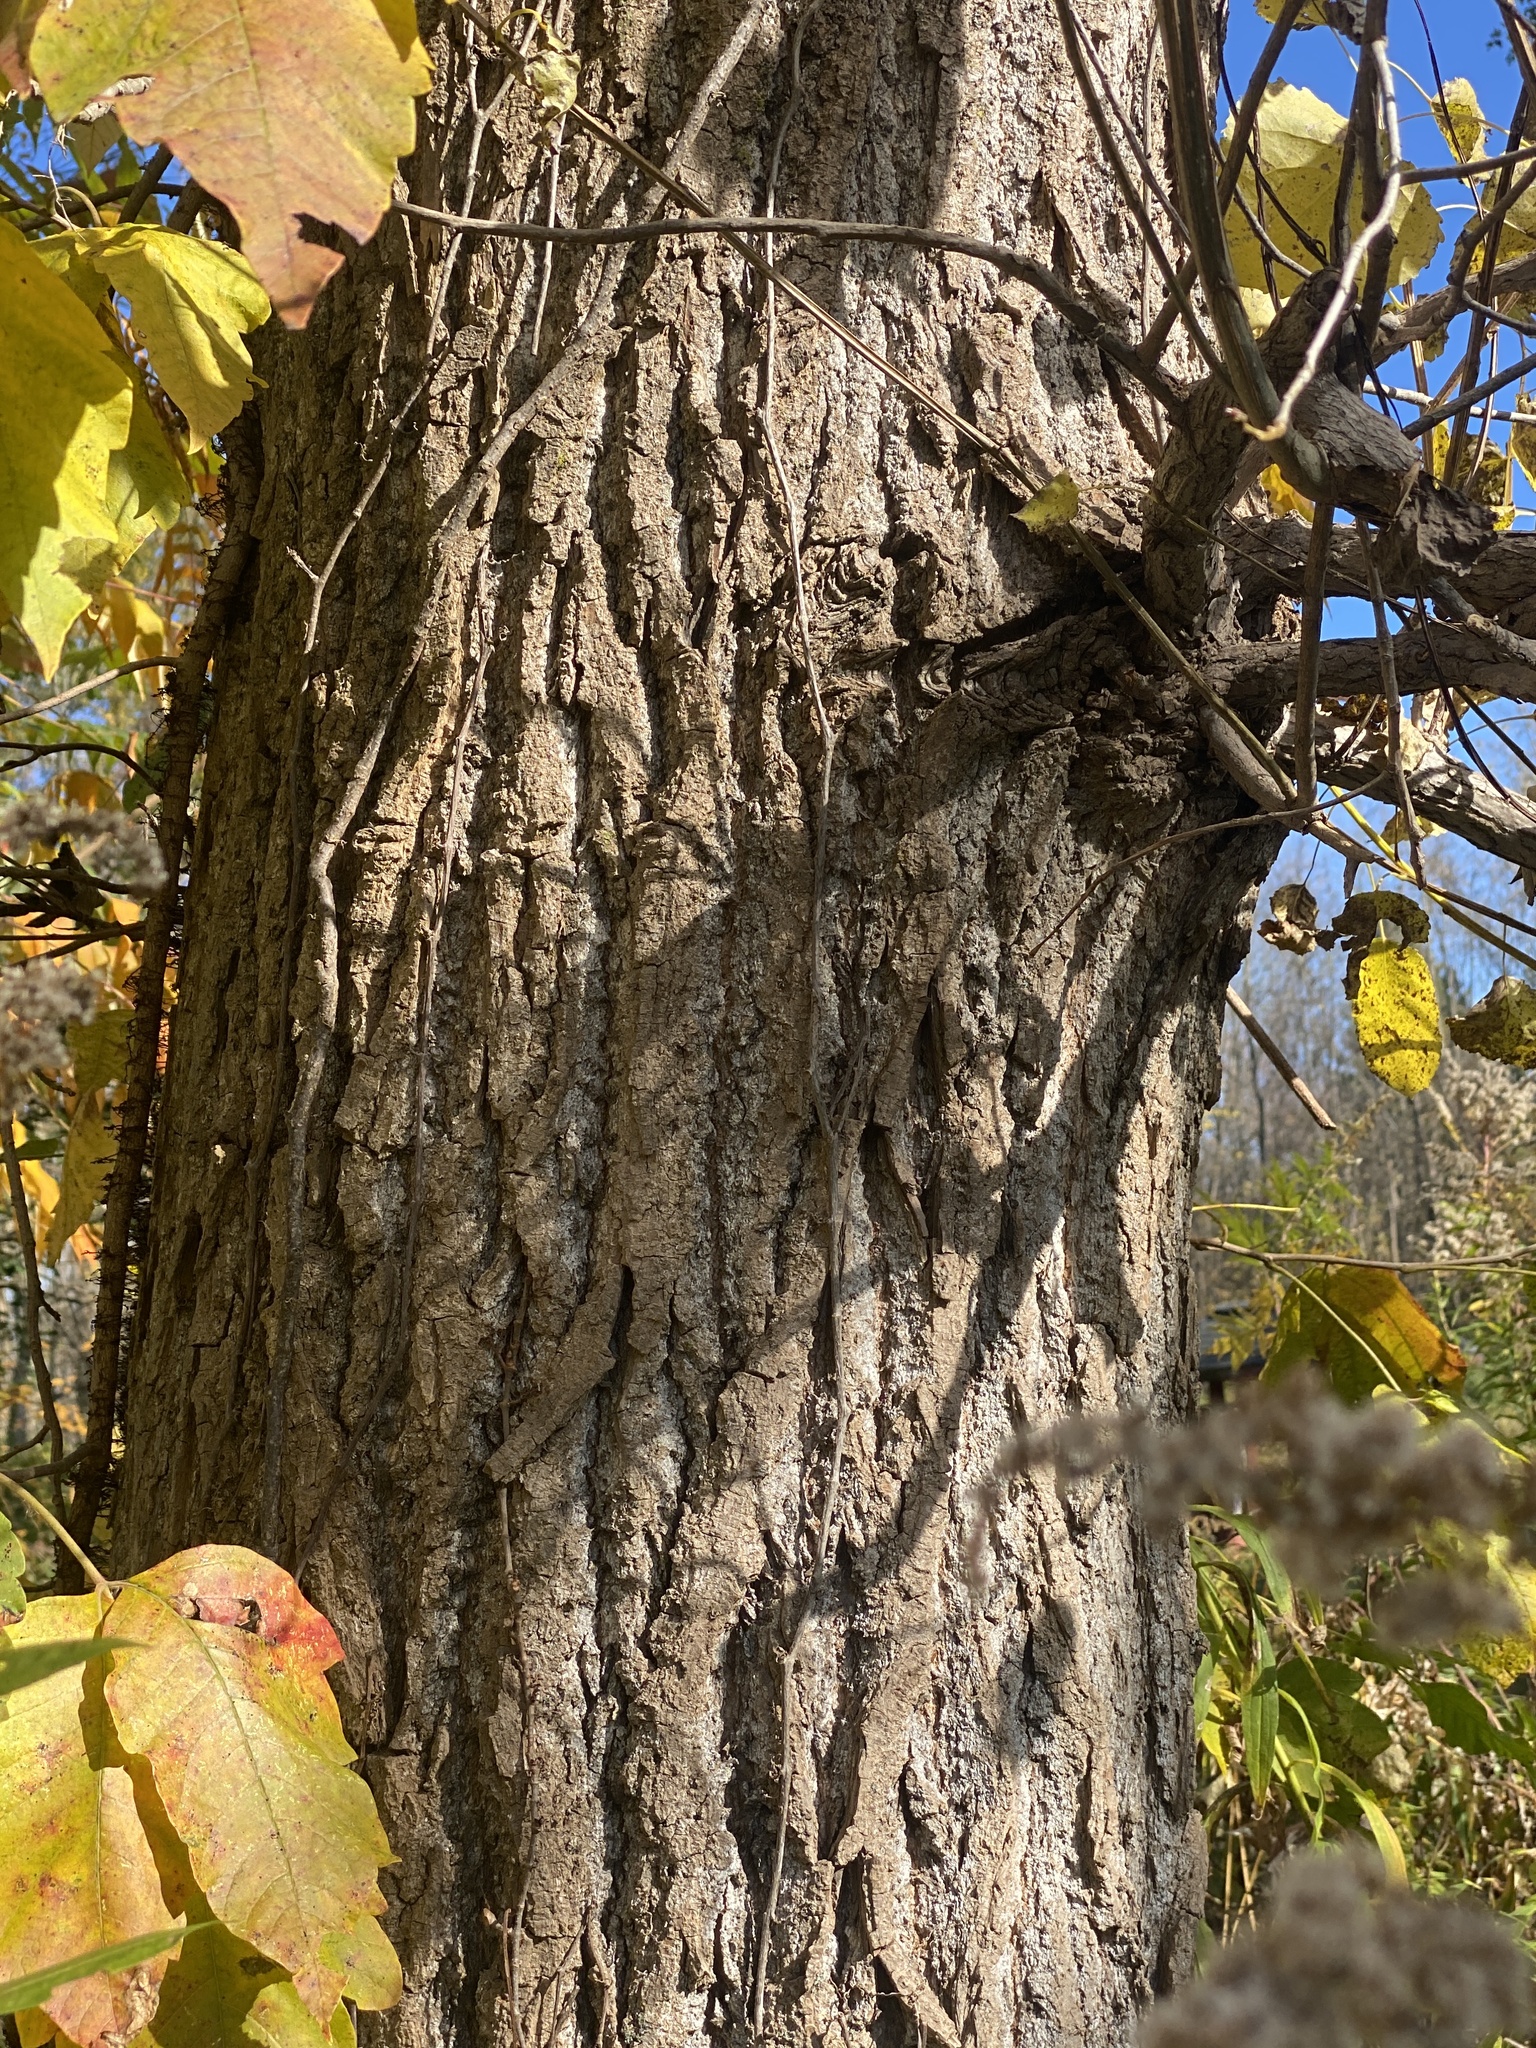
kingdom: Plantae
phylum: Tracheophyta
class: Magnoliopsida
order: Malpighiales
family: Salicaceae
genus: Populus
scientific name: Populus deltoides
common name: Eastern cottonwood
